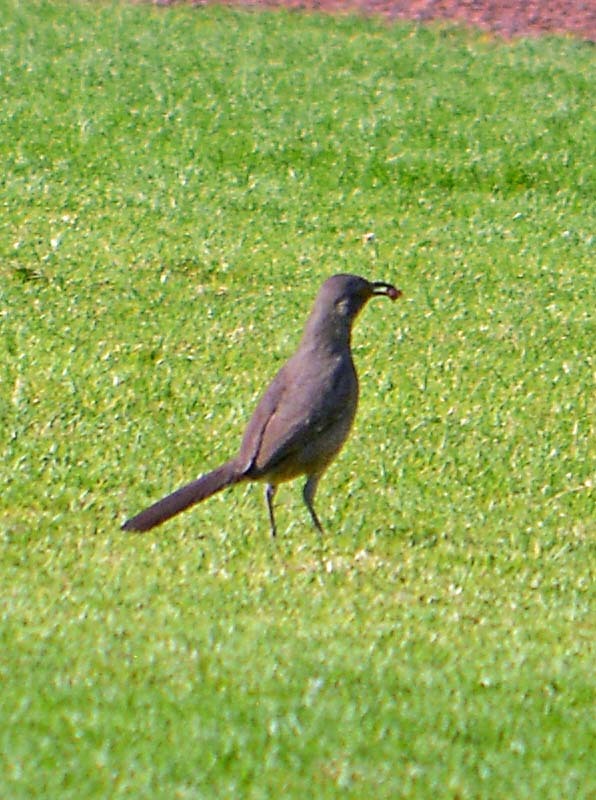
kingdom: Animalia
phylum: Chordata
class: Aves
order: Passeriformes
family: Mimidae
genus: Toxostoma
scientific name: Toxostoma curvirostre
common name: Curve-billed thrasher
